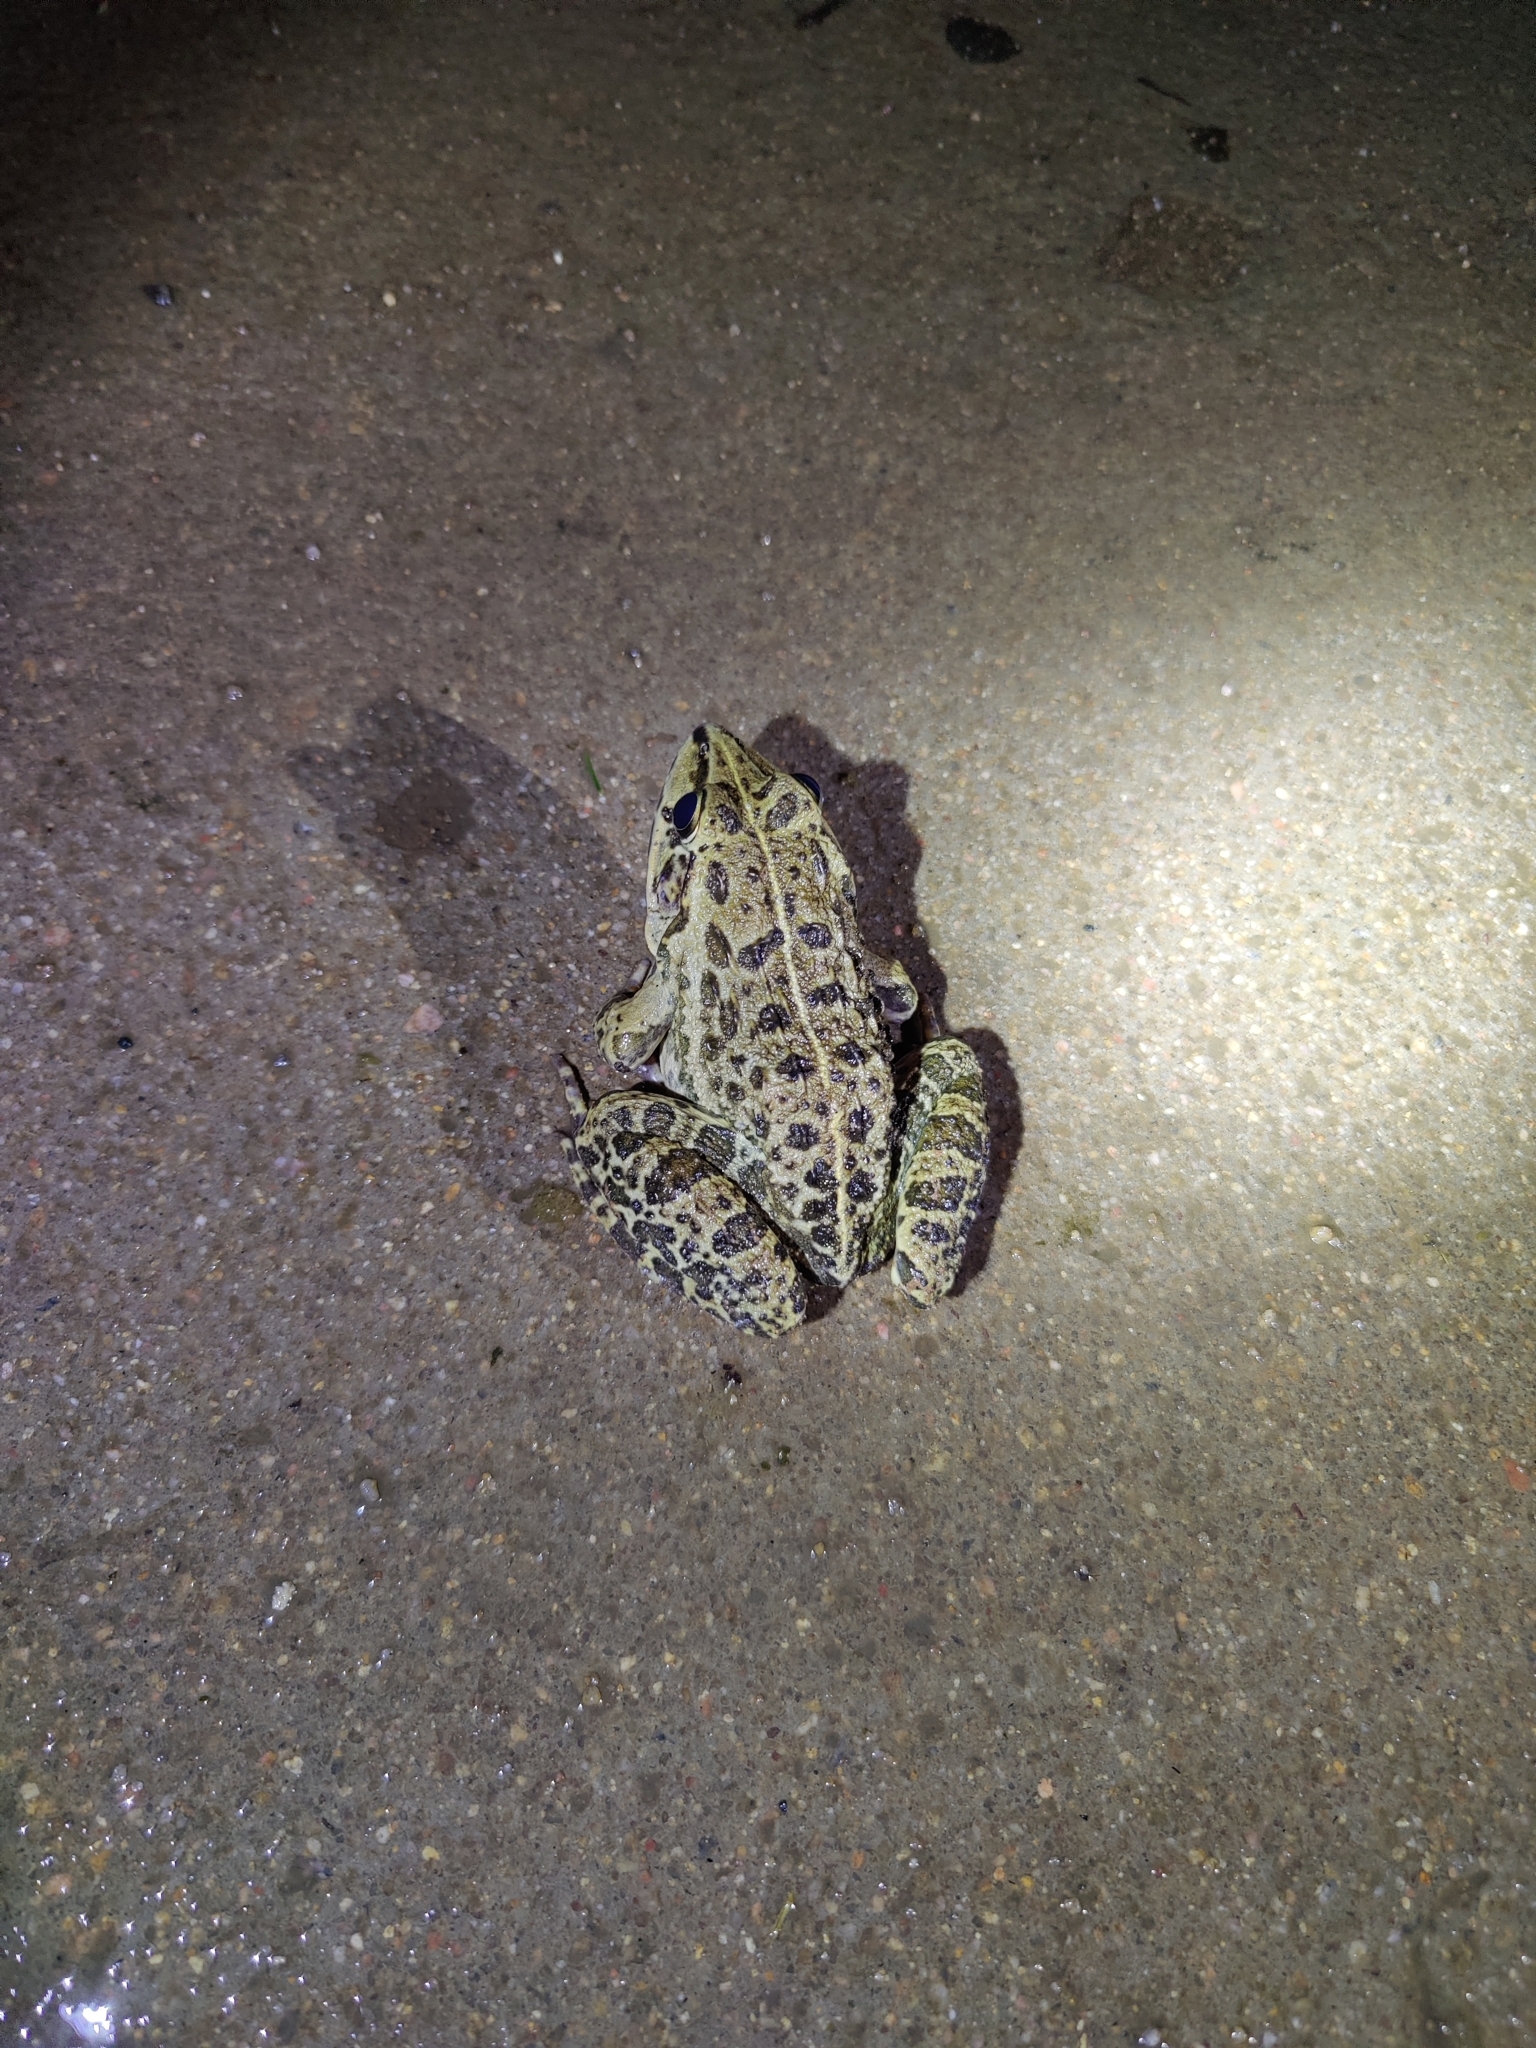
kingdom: Animalia
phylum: Chordata
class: Amphibia
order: Anura
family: Dicroglossidae
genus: Hoplobatrachus
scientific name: Hoplobatrachus crassus
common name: Jerdon's bullfrog
